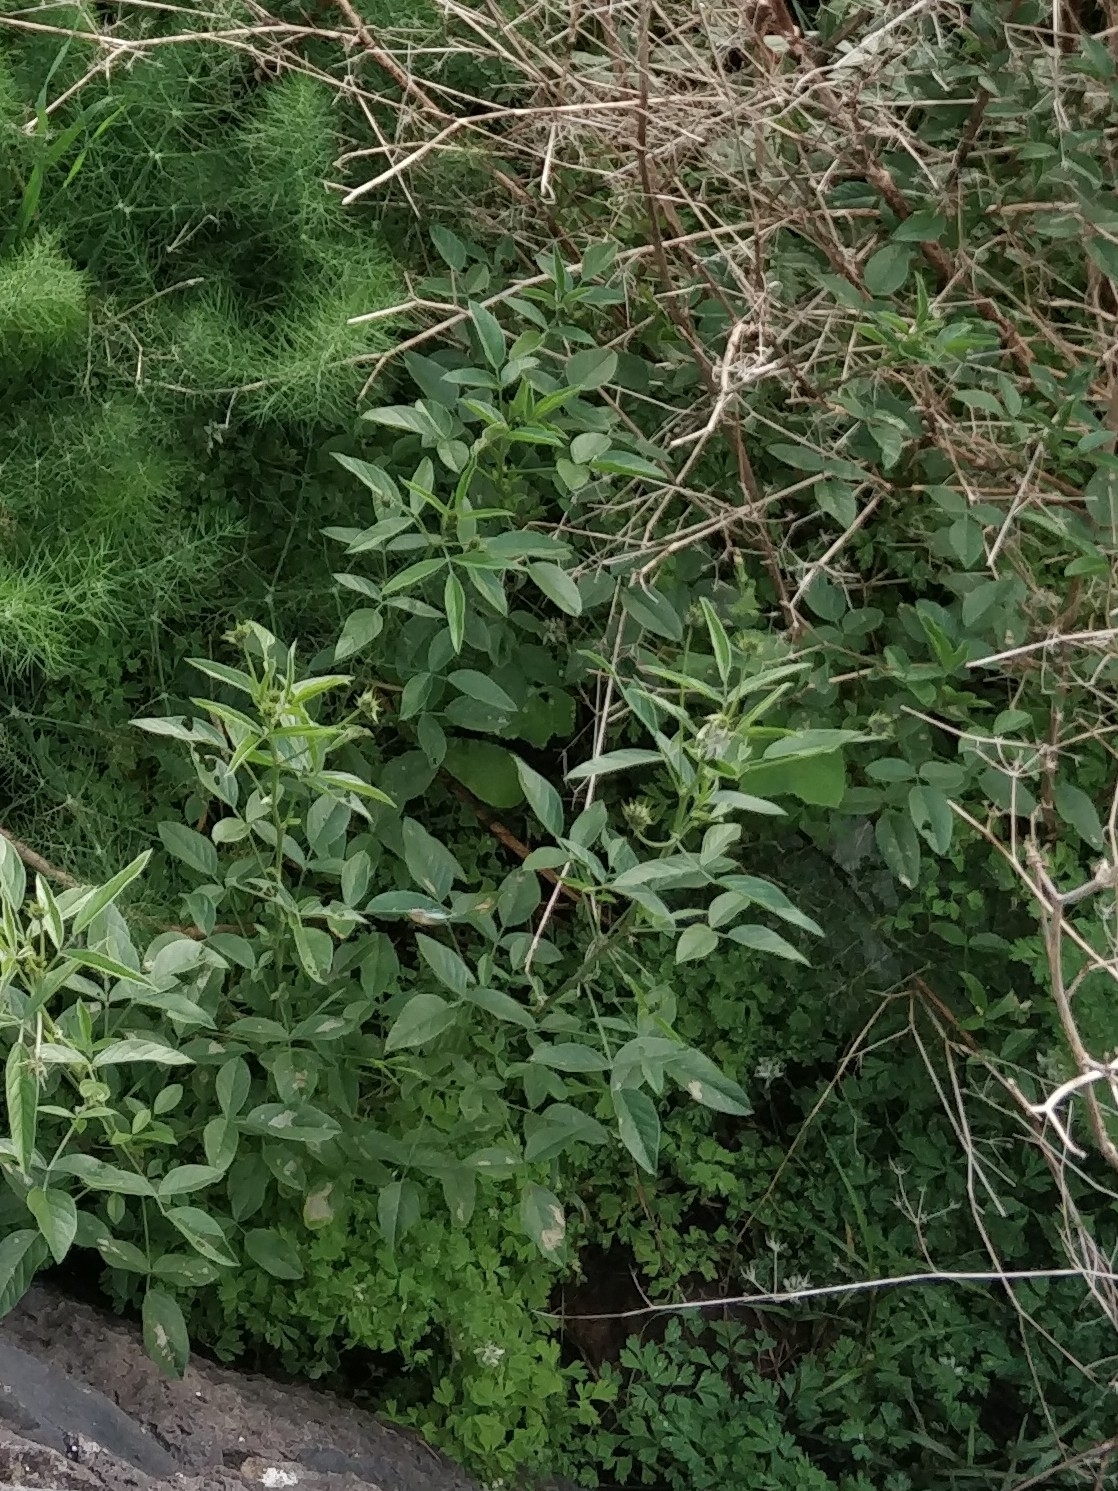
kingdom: Plantae
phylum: Tracheophyta
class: Magnoliopsida
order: Fabales
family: Fabaceae
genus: Bituminaria
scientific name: Bituminaria bituminosa
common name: Arabian pea
